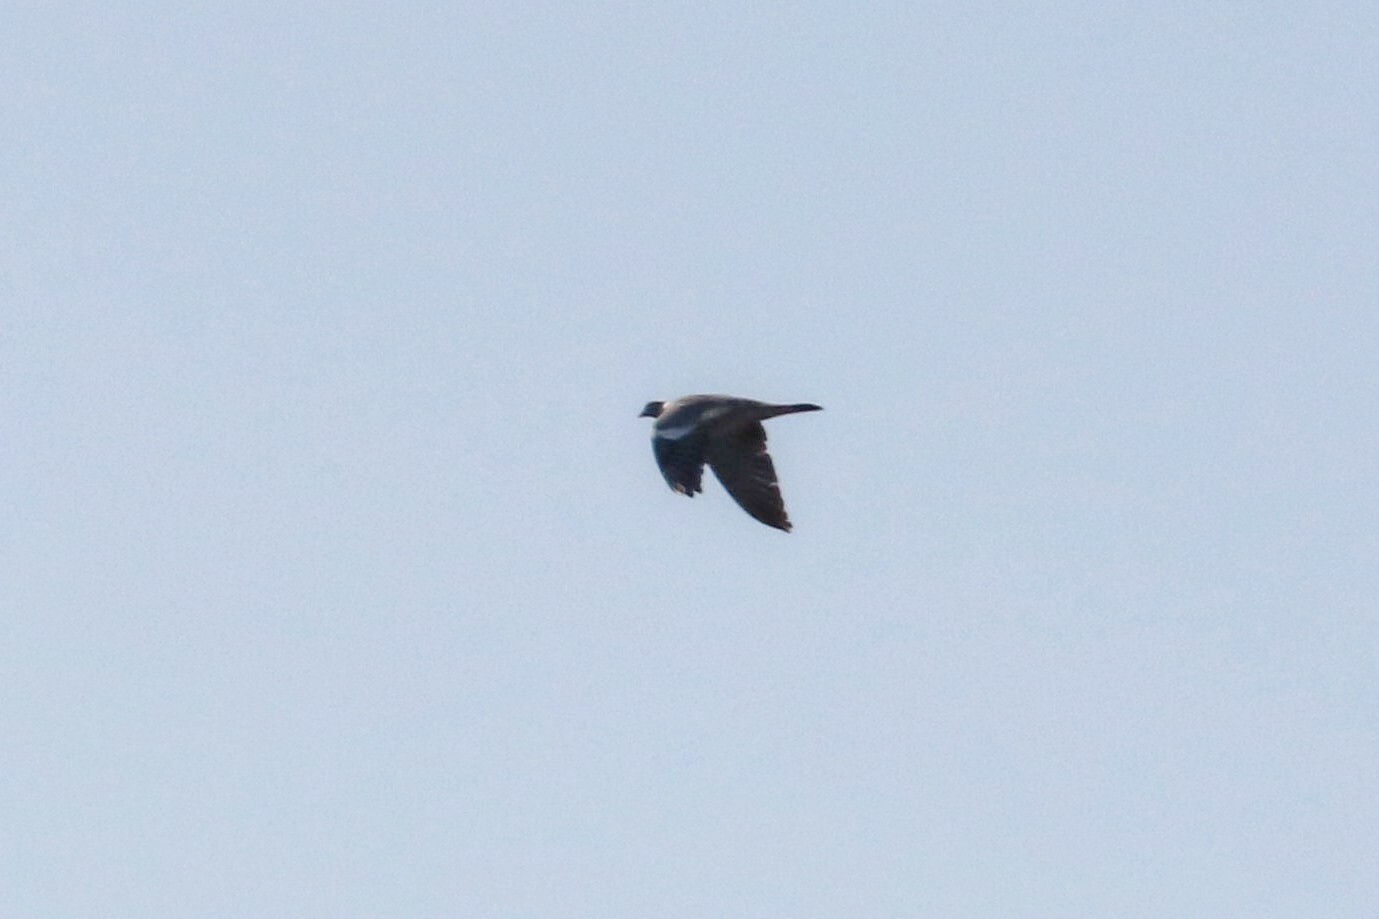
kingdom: Animalia
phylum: Chordata
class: Aves
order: Columbiformes
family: Columbidae
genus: Columba
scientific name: Columba palumbus
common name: Common wood pigeon
